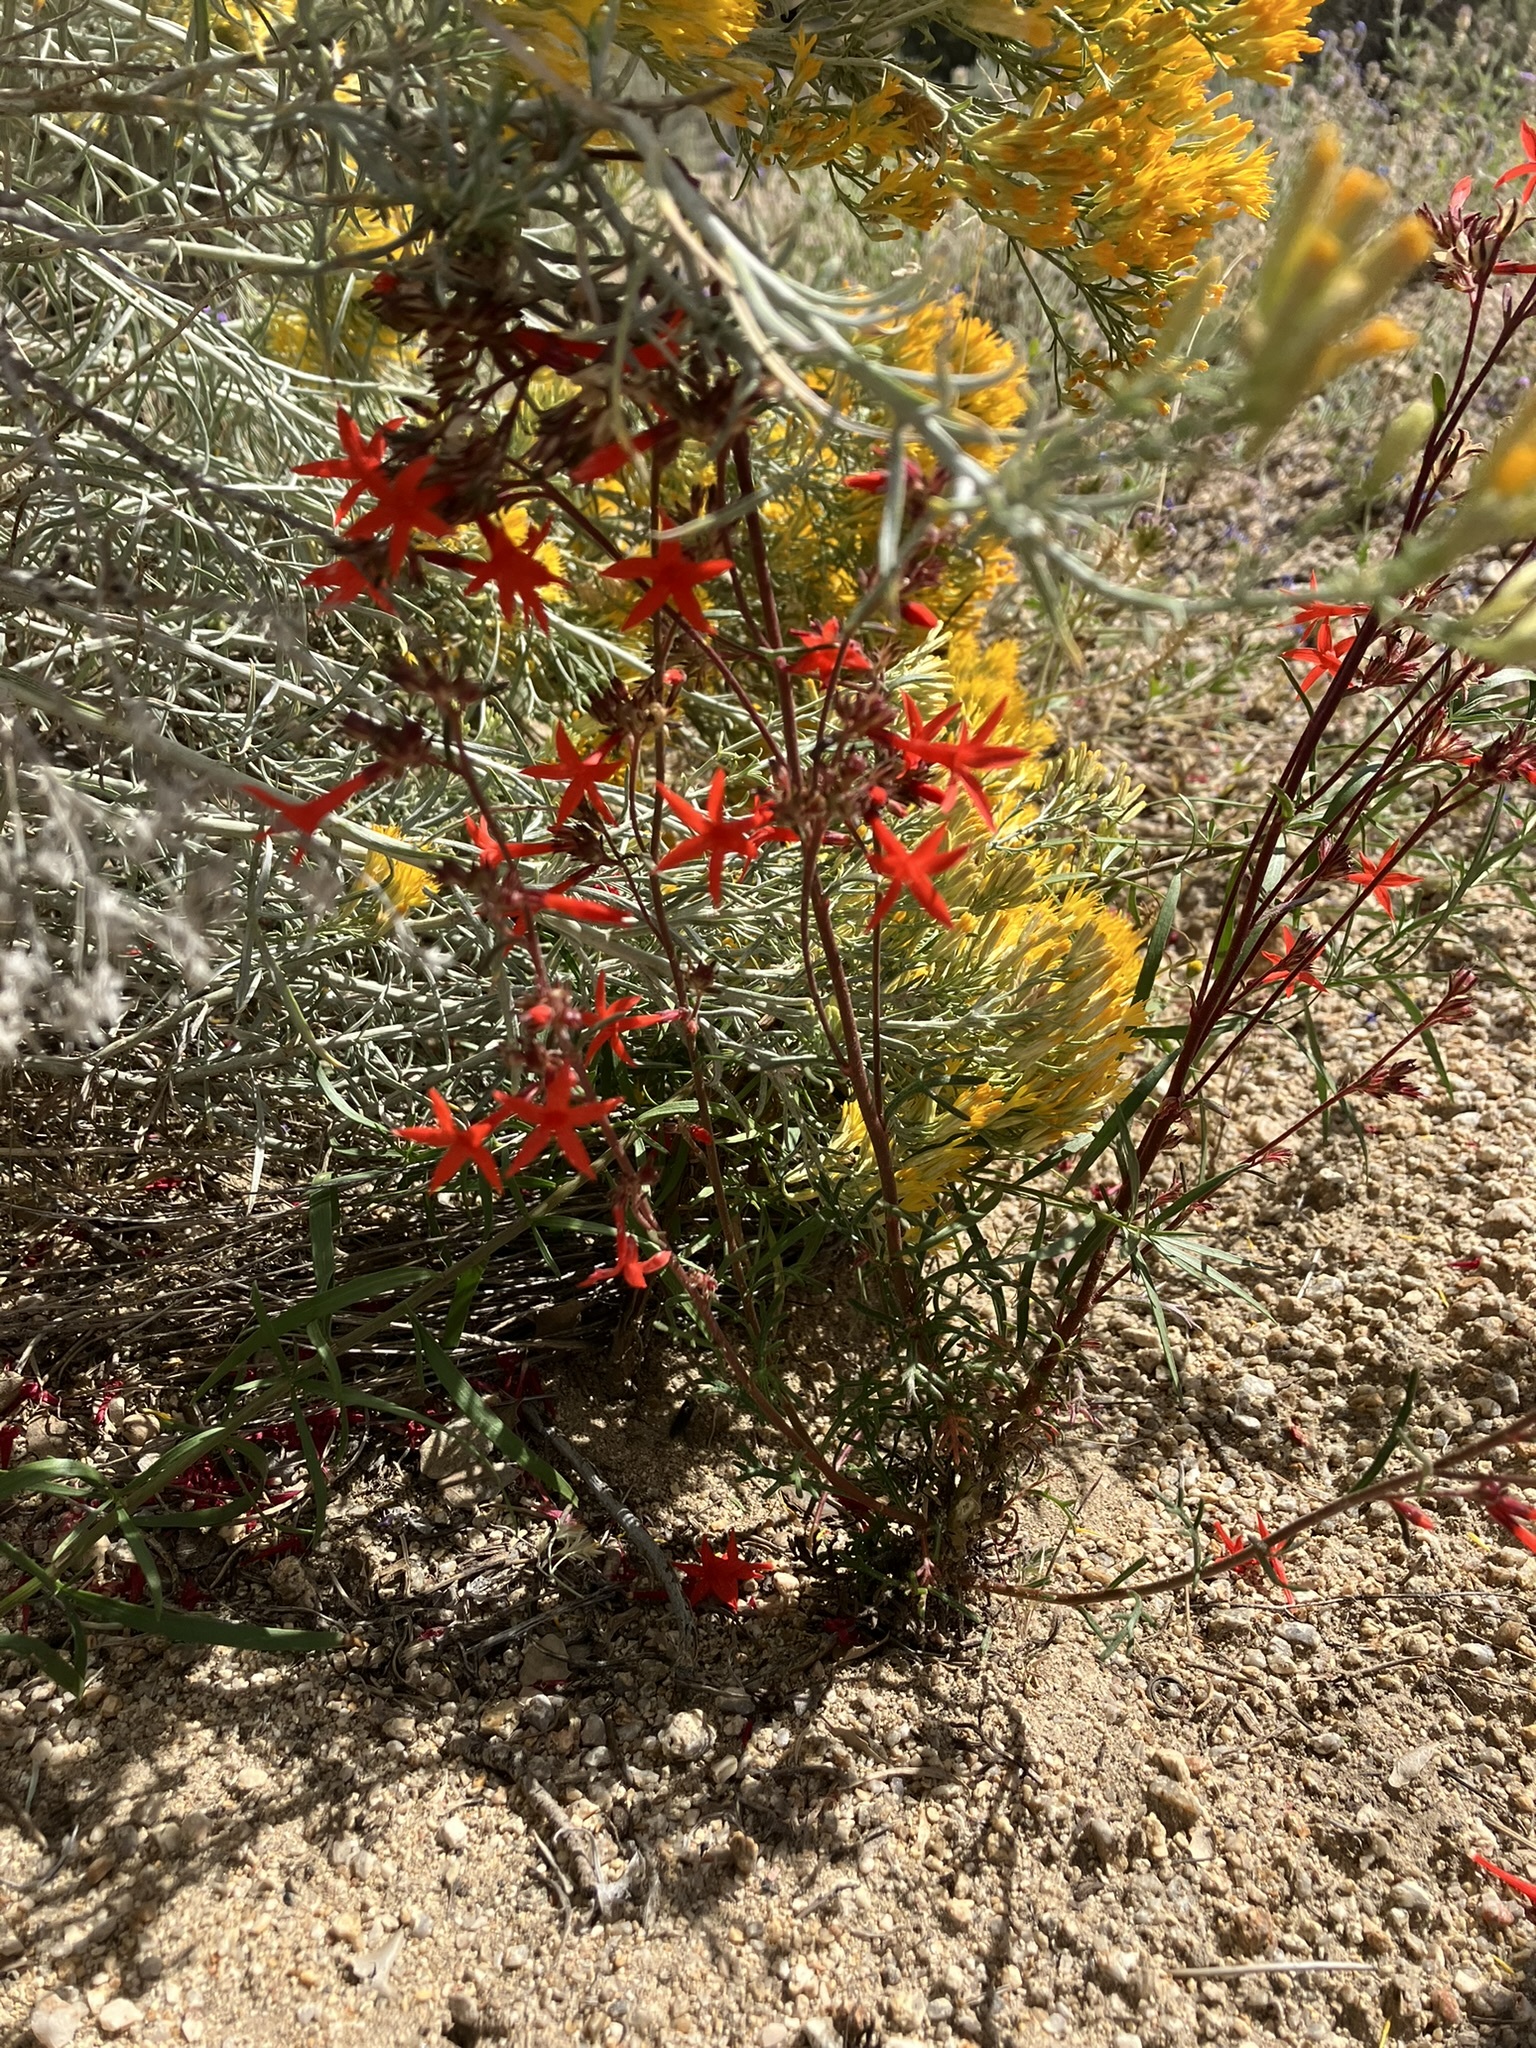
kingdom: Plantae
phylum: Tracheophyta
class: Magnoliopsida
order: Ericales
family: Polemoniaceae
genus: Ipomopsis
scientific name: Ipomopsis arizonica
